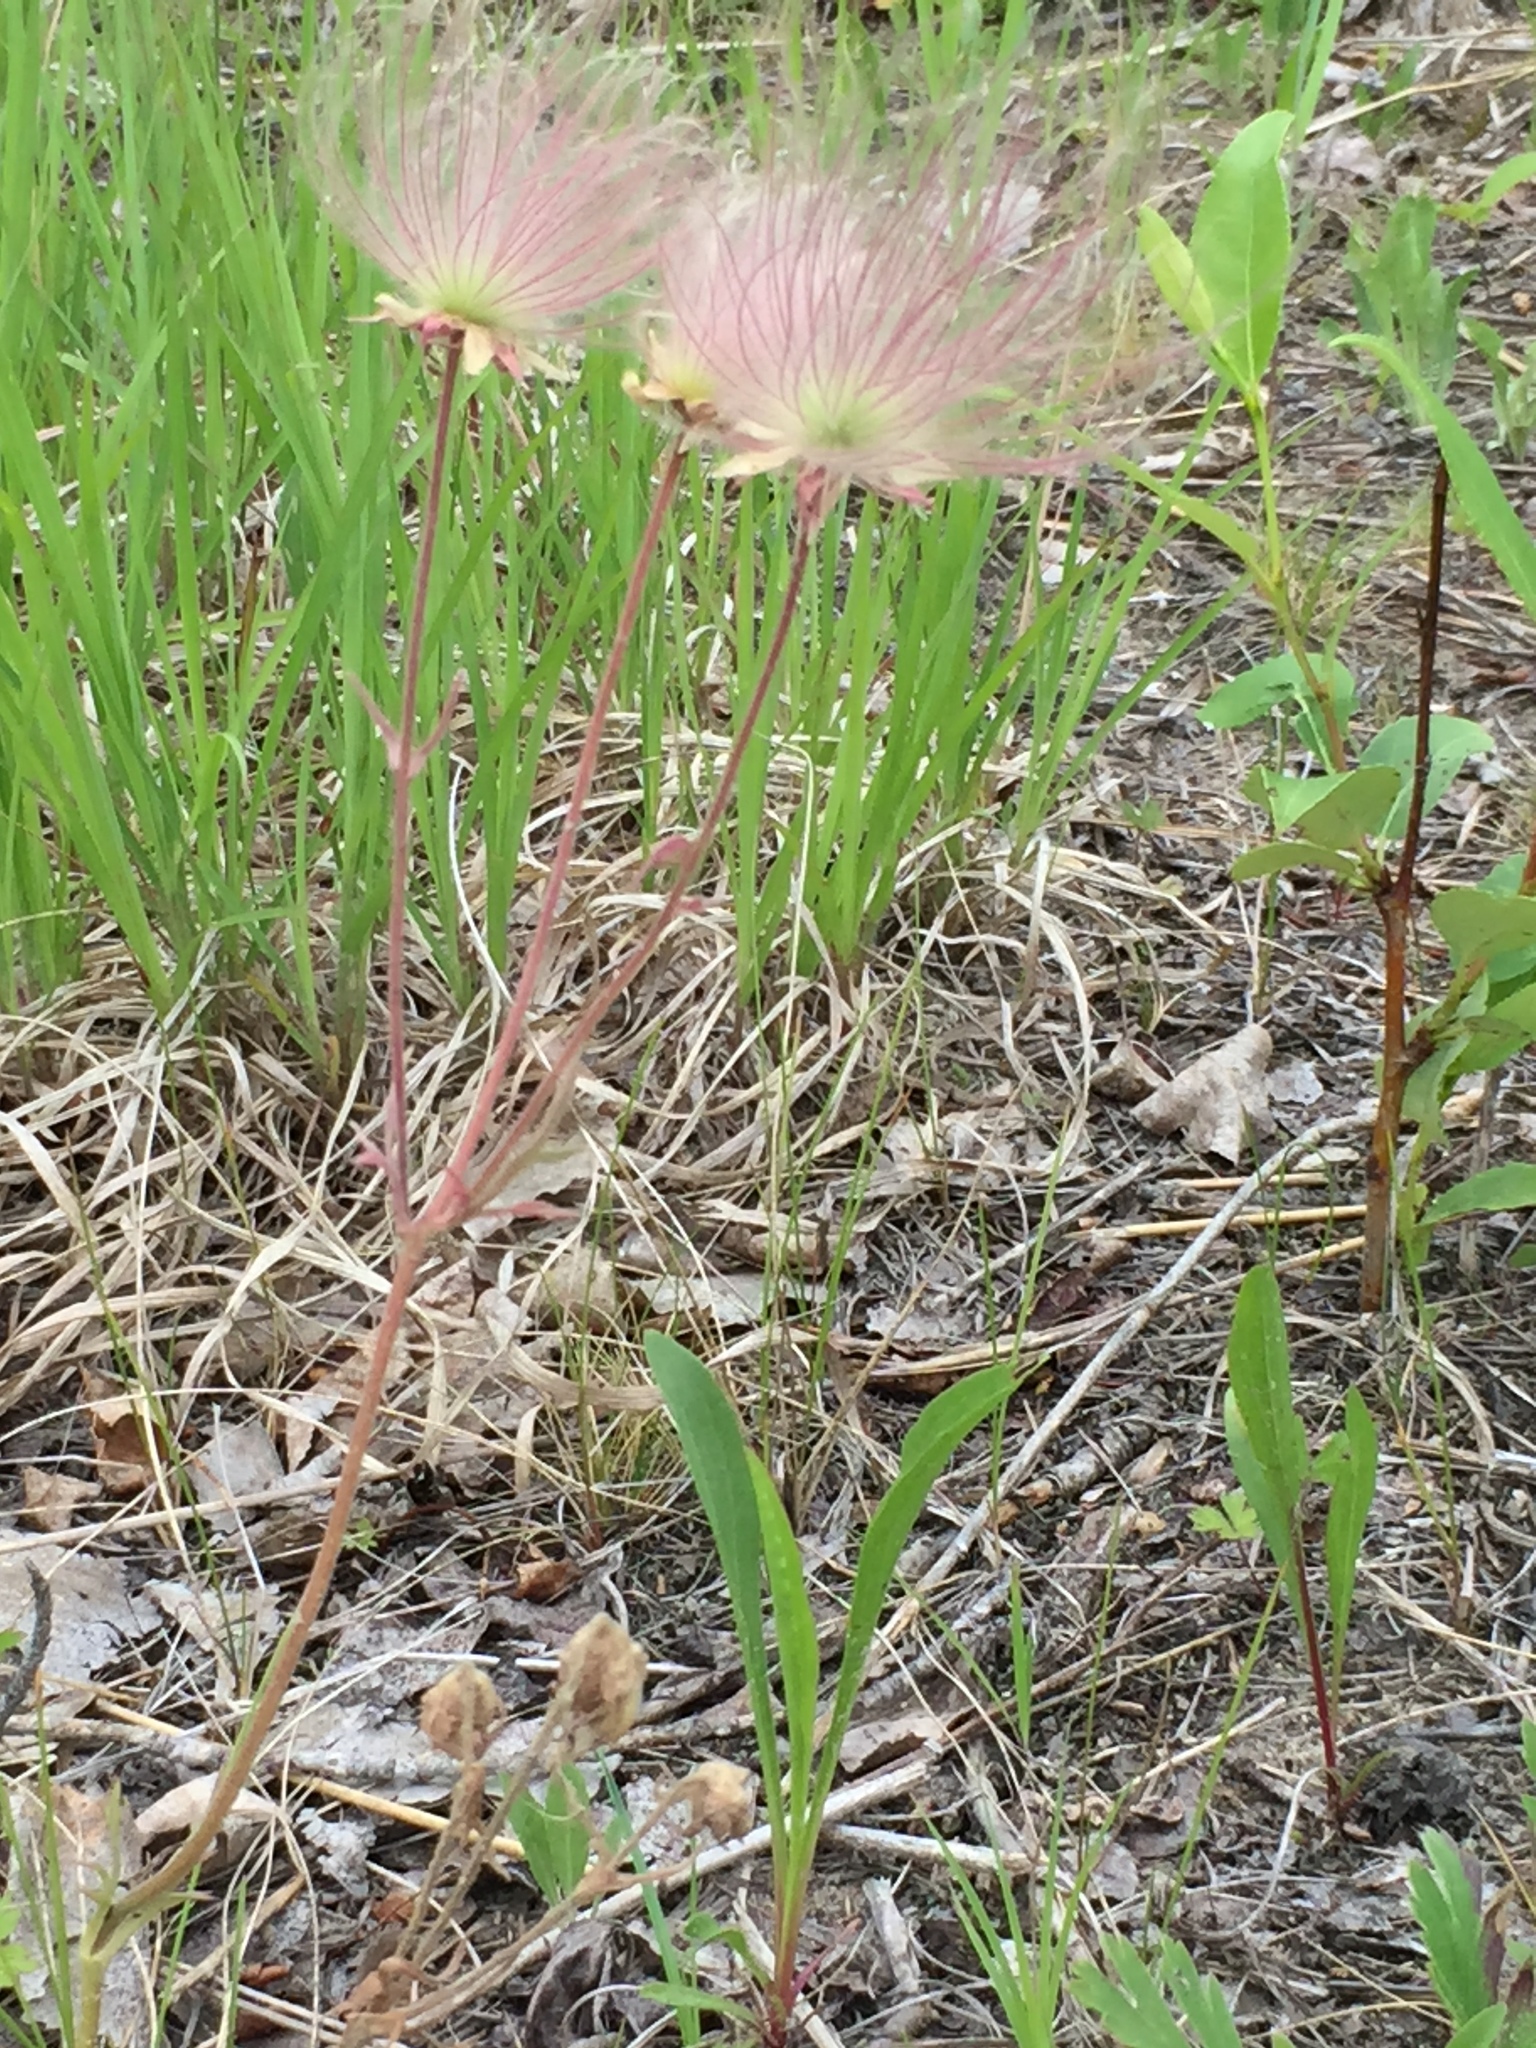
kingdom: Plantae
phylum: Tracheophyta
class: Magnoliopsida
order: Rosales
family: Rosaceae
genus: Geum
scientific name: Geum triflorum
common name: Old man's whiskers
